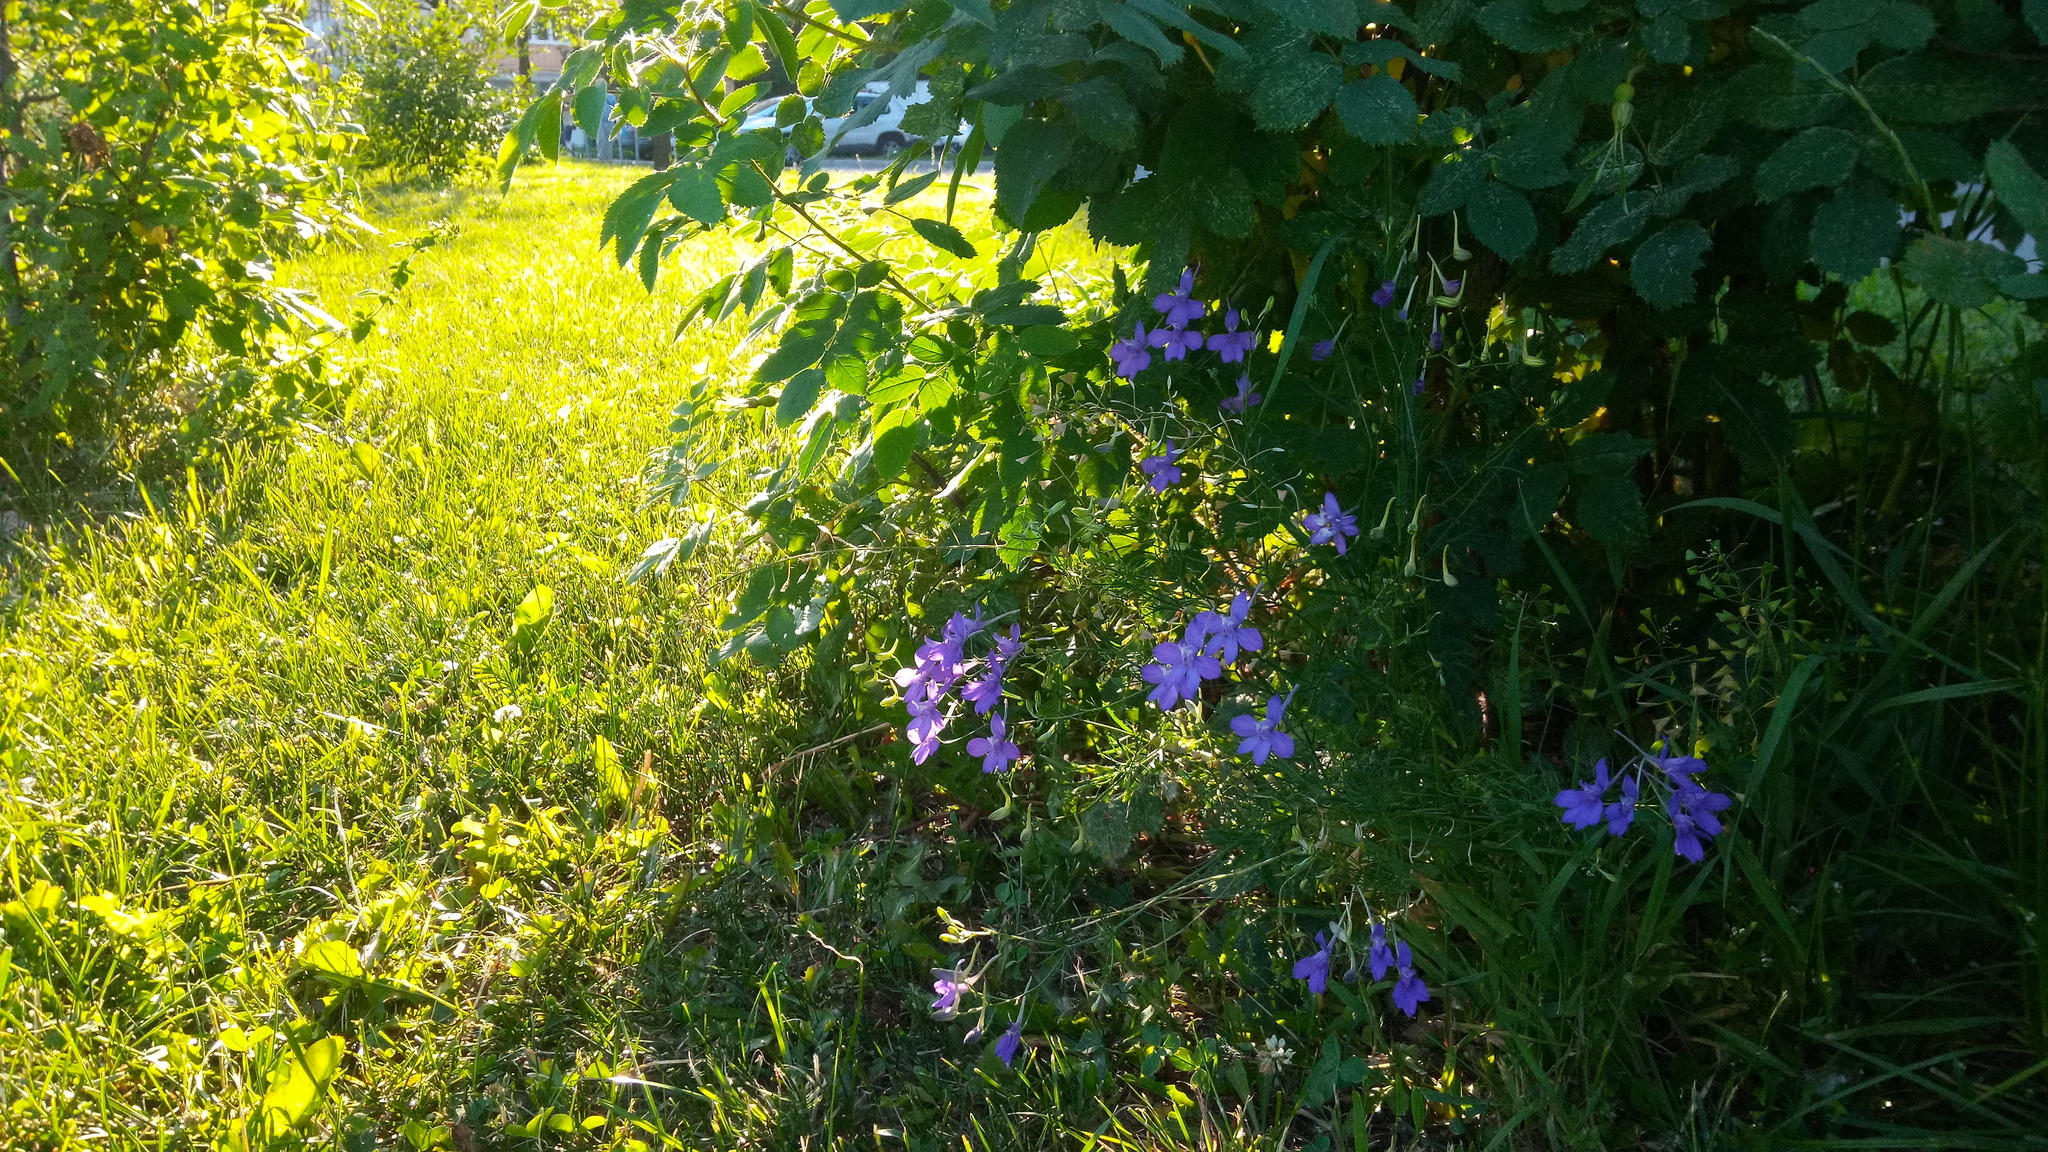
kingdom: Plantae
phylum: Tracheophyta
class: Magnoliopsida
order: Ranunculales
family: Ranunculaceae
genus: Delphinium
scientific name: Delphinium consolida
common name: Branching larkspur
